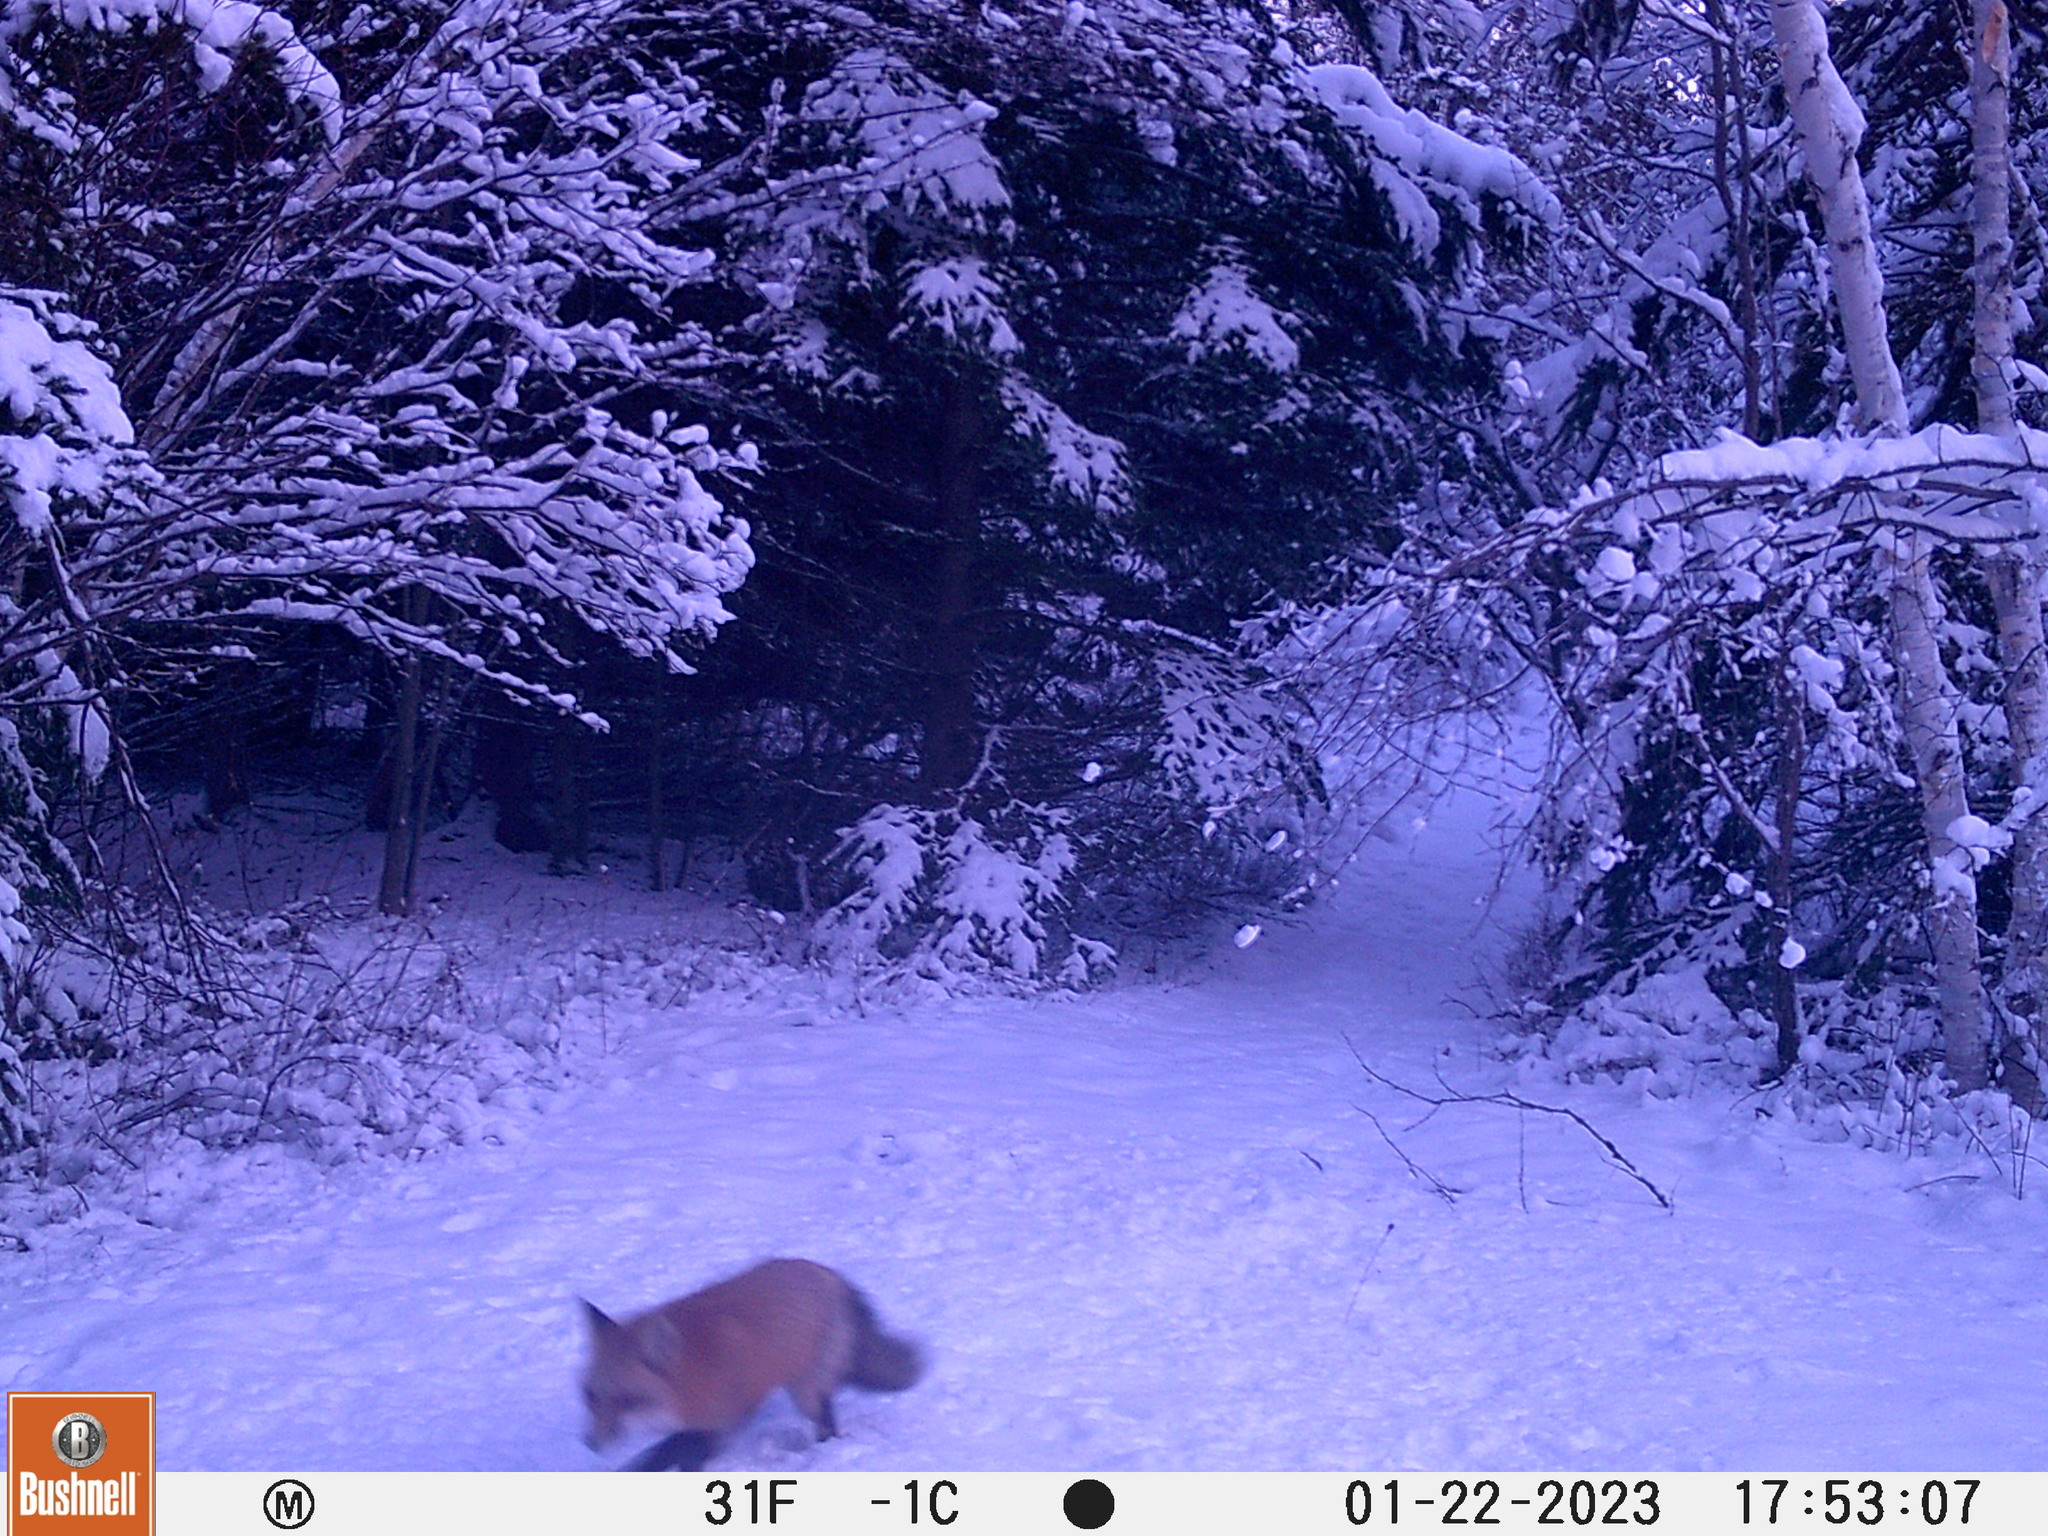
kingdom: Animalia
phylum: Chordata
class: Mammalia
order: Carnivora
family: Canidae
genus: Vulpes
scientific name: Vulpes vulpes
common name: Red fox
